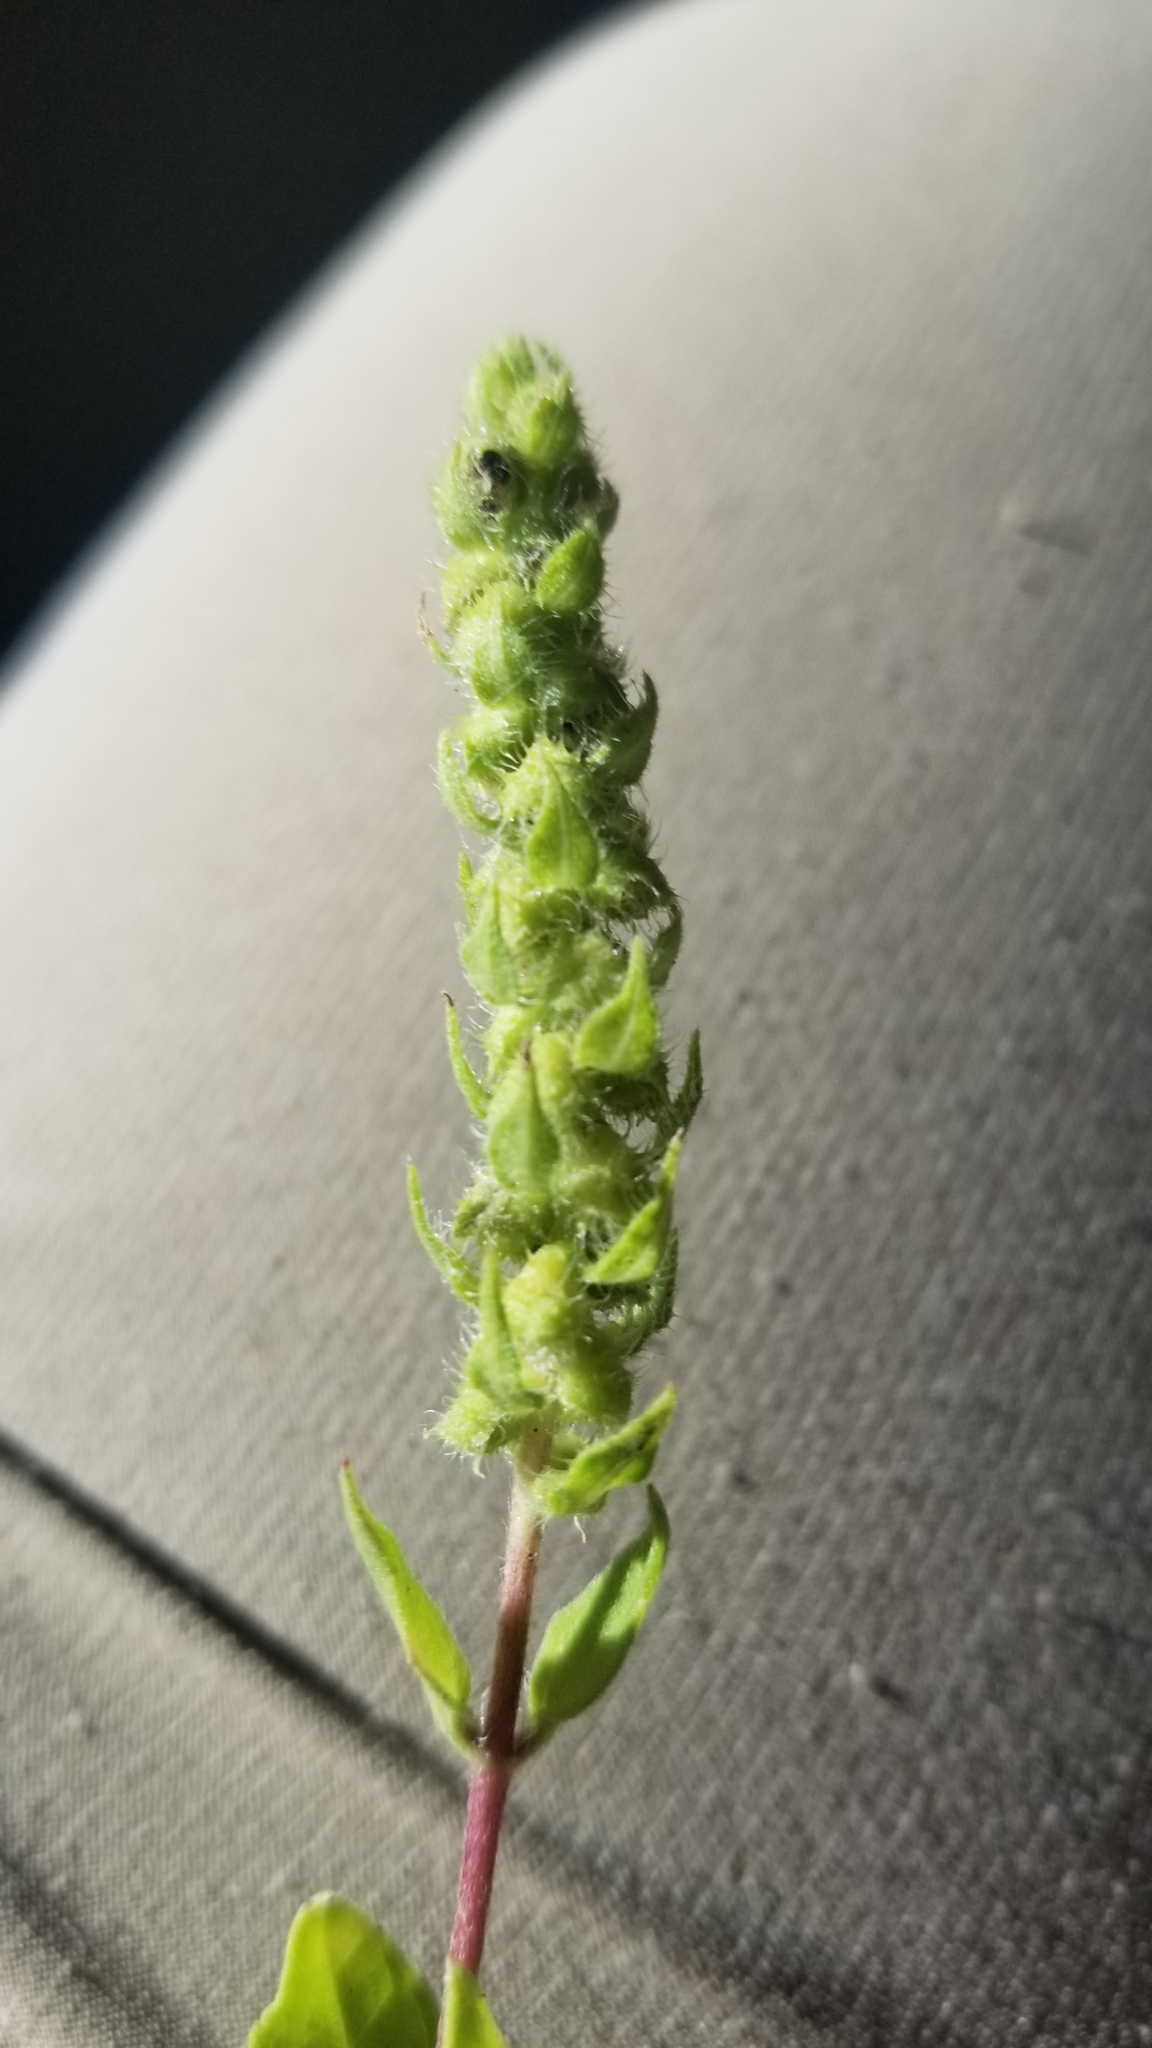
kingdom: Plantae
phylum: Tracheophyta
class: Magnoliopsida
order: Asterales
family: Asteraceae
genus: Iva
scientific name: Iva annua
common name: Marsh-elder
